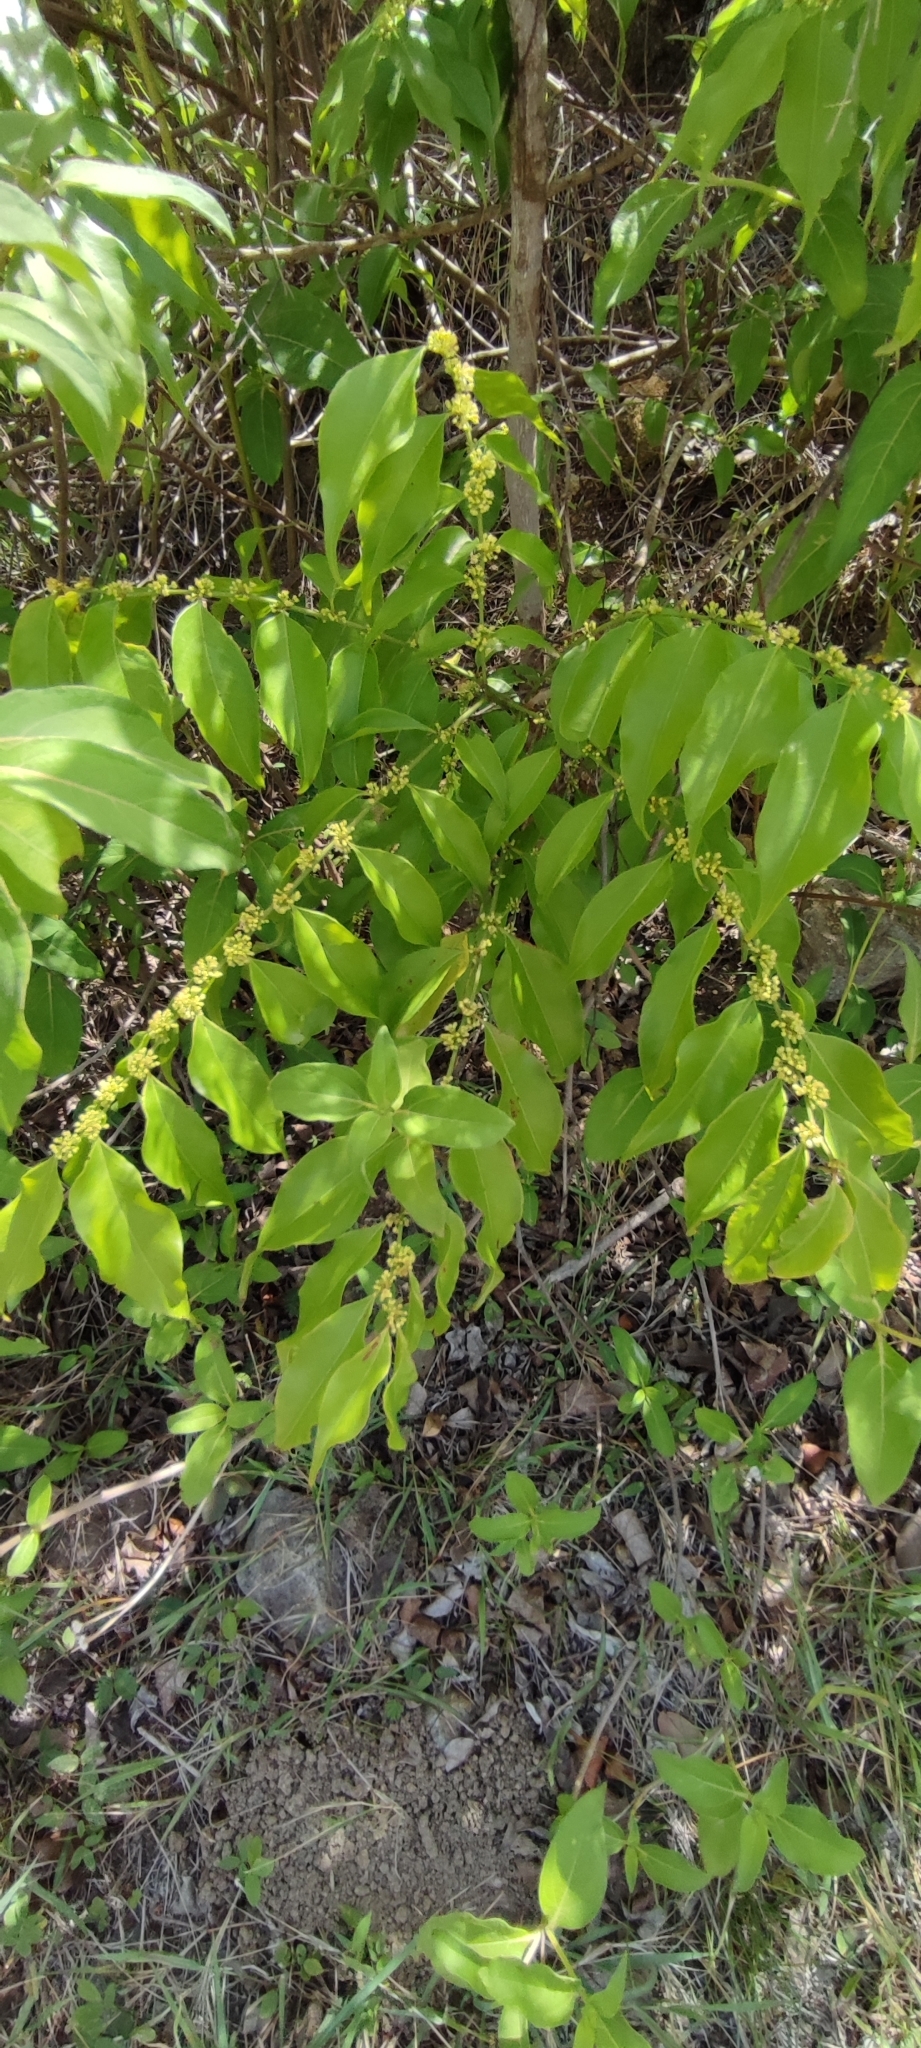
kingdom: Plantae
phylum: Tracheophyta
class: Magnoliopsida
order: Malpighiales
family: Salicaceae
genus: Casearia
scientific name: Casearia sylvestris
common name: Wild sage
